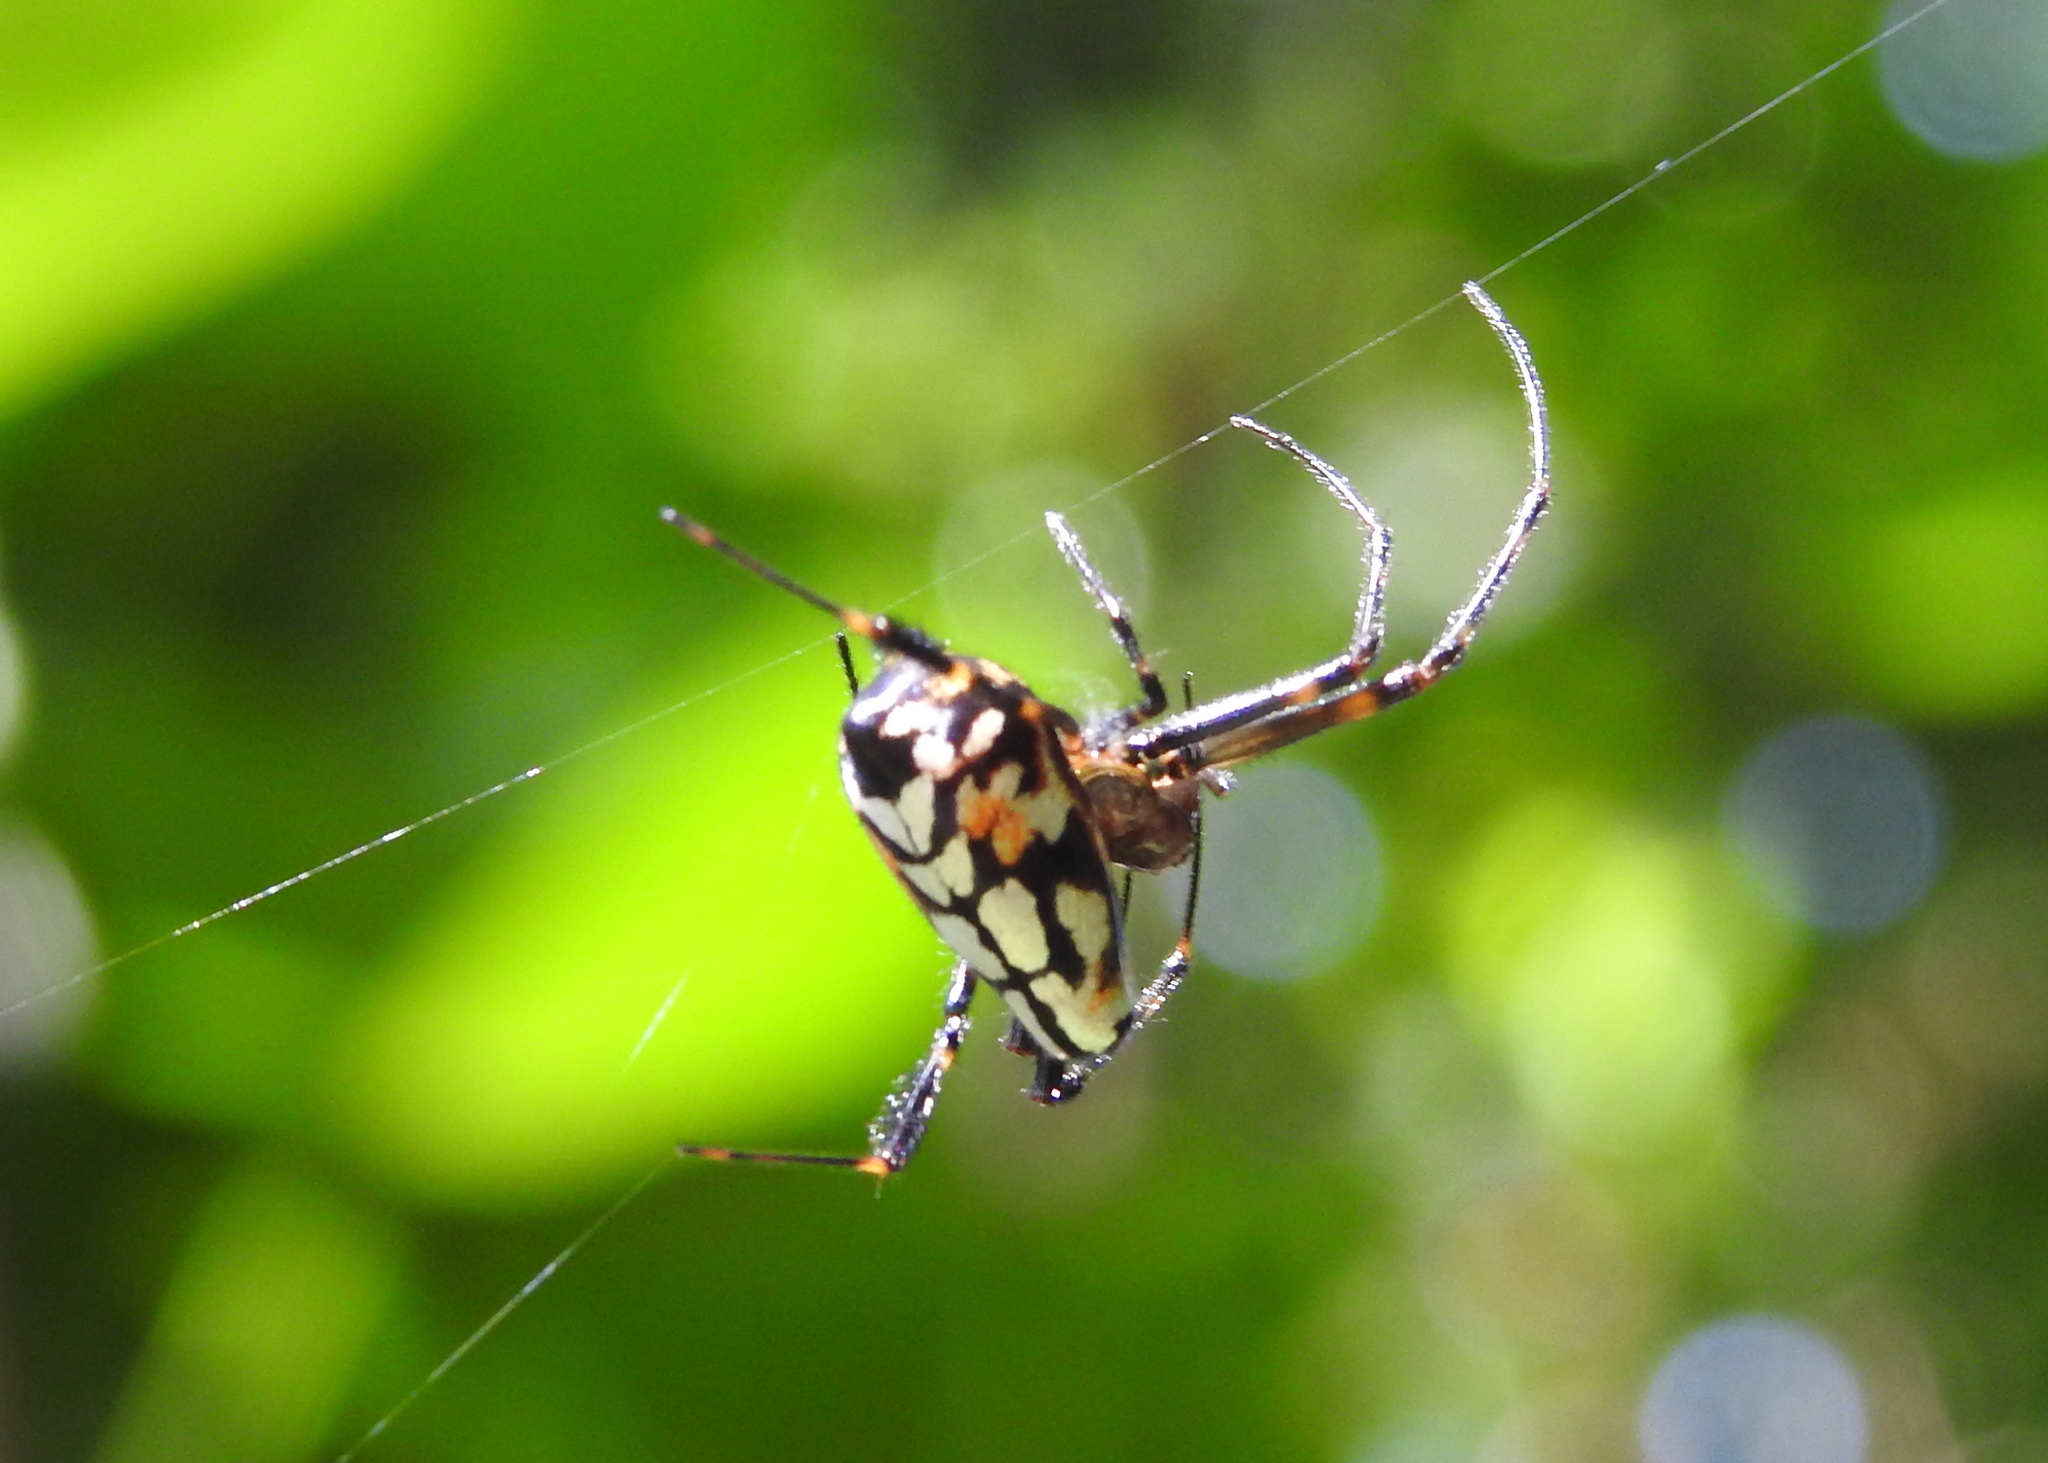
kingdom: Animalia
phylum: Arthropoda
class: Arachnida
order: Araneae
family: Tetragnathidae
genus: Leucauge
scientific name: Leucauge fastigata
